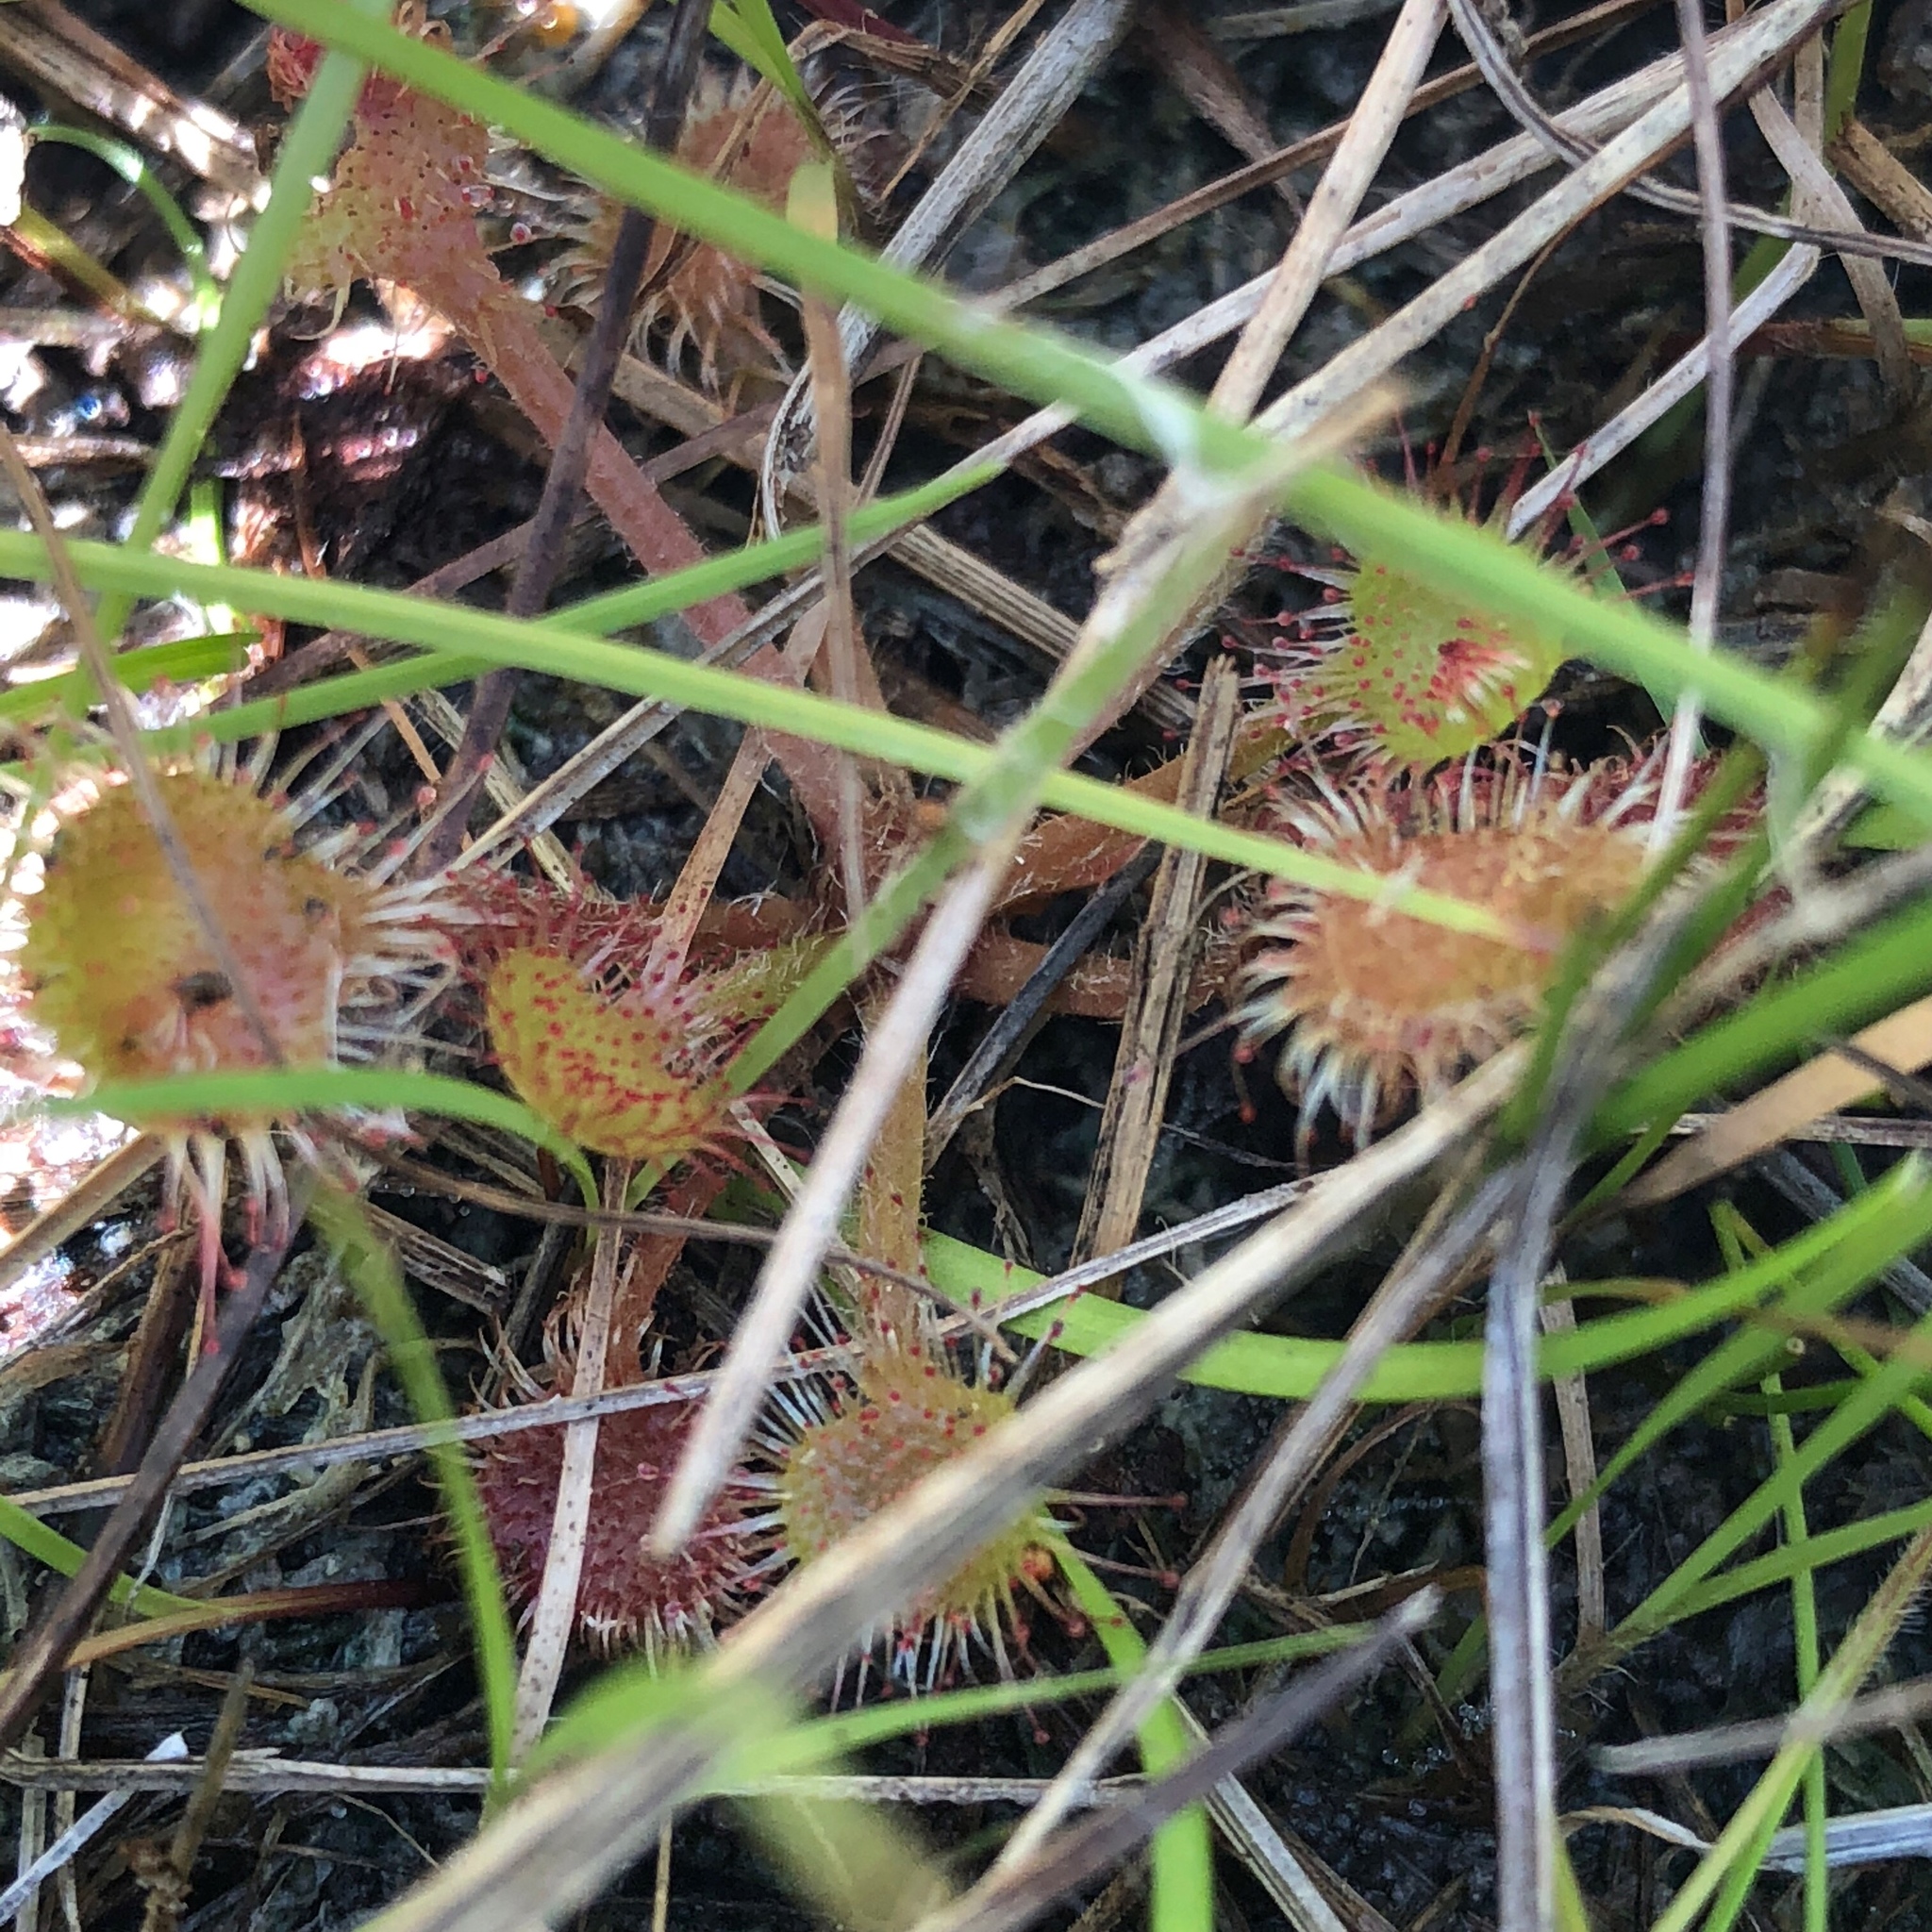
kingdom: Plantae
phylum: Tracheophyta
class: Magnoliopsida
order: Caryophyllales
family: Droseraceae
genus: Drosera
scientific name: Drosera rotundifolia
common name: Round-leaved sundew
